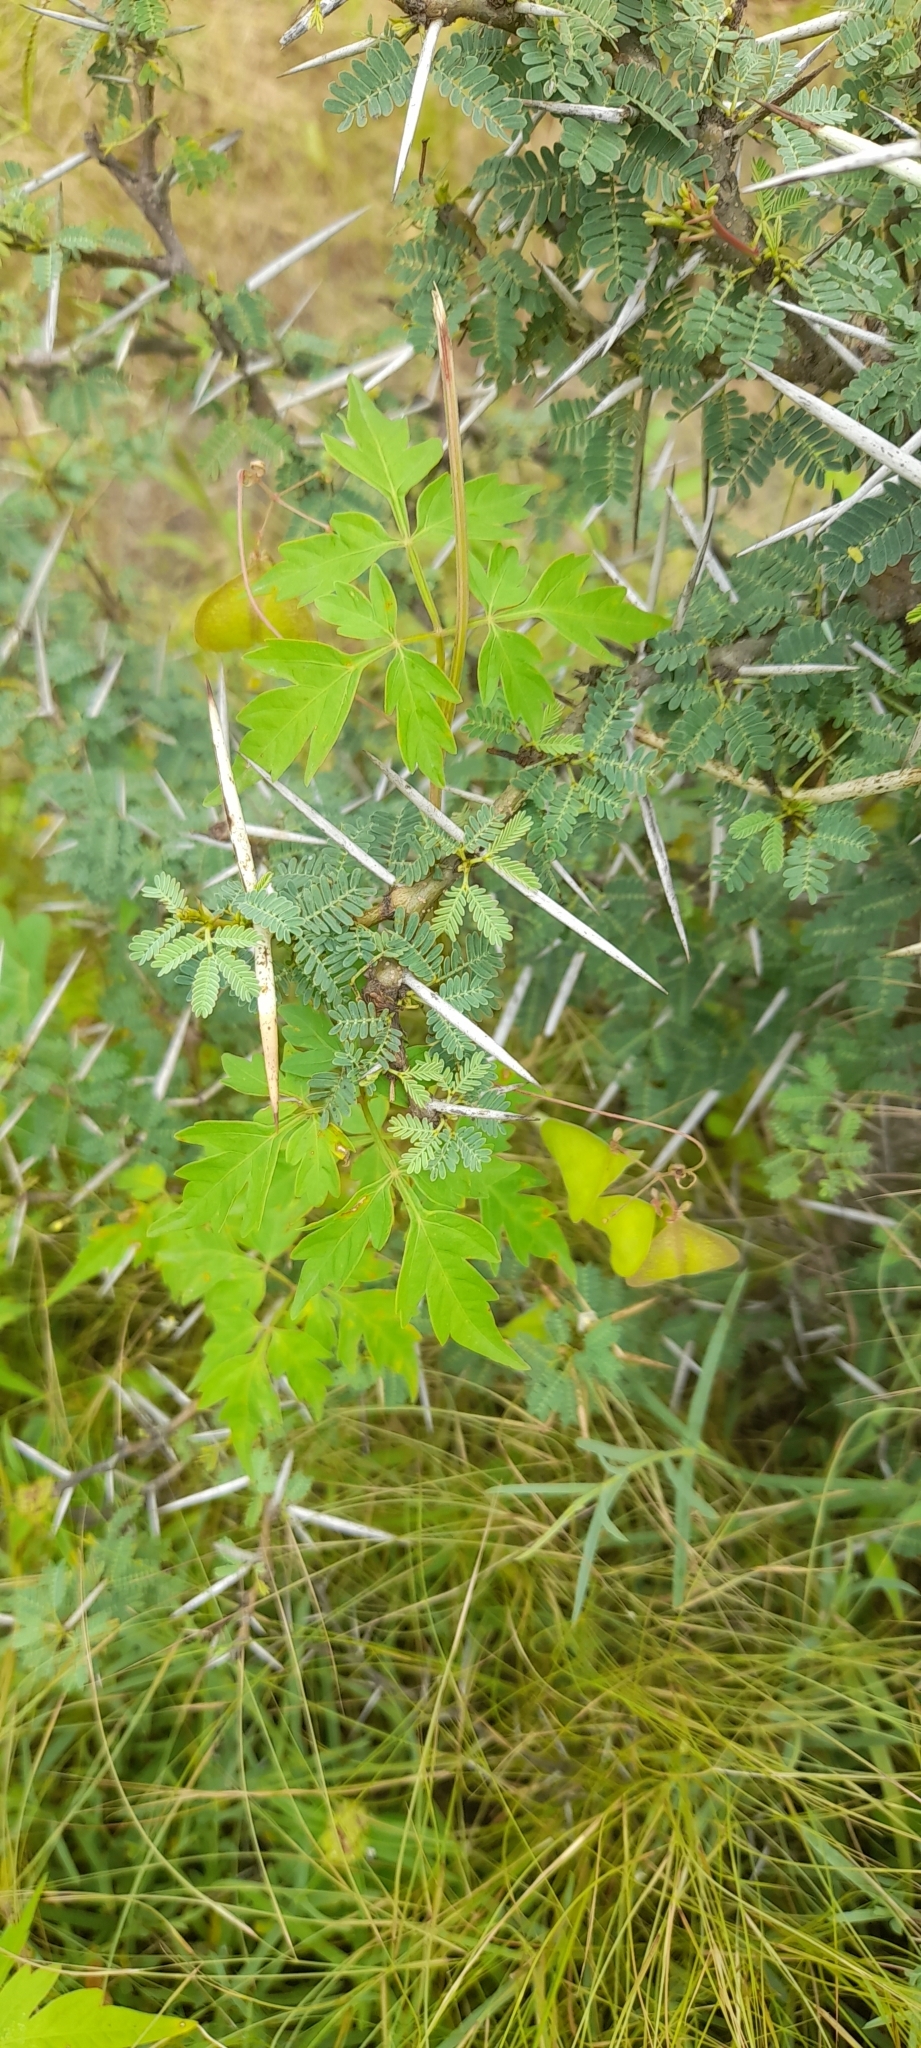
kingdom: Plantae
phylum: Tracheophyta
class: Magnoliopsida
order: Sapindales
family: Sapindaceae
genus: Cardiospermum
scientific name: Cardiospermum halicacabum
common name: Balloon vine
